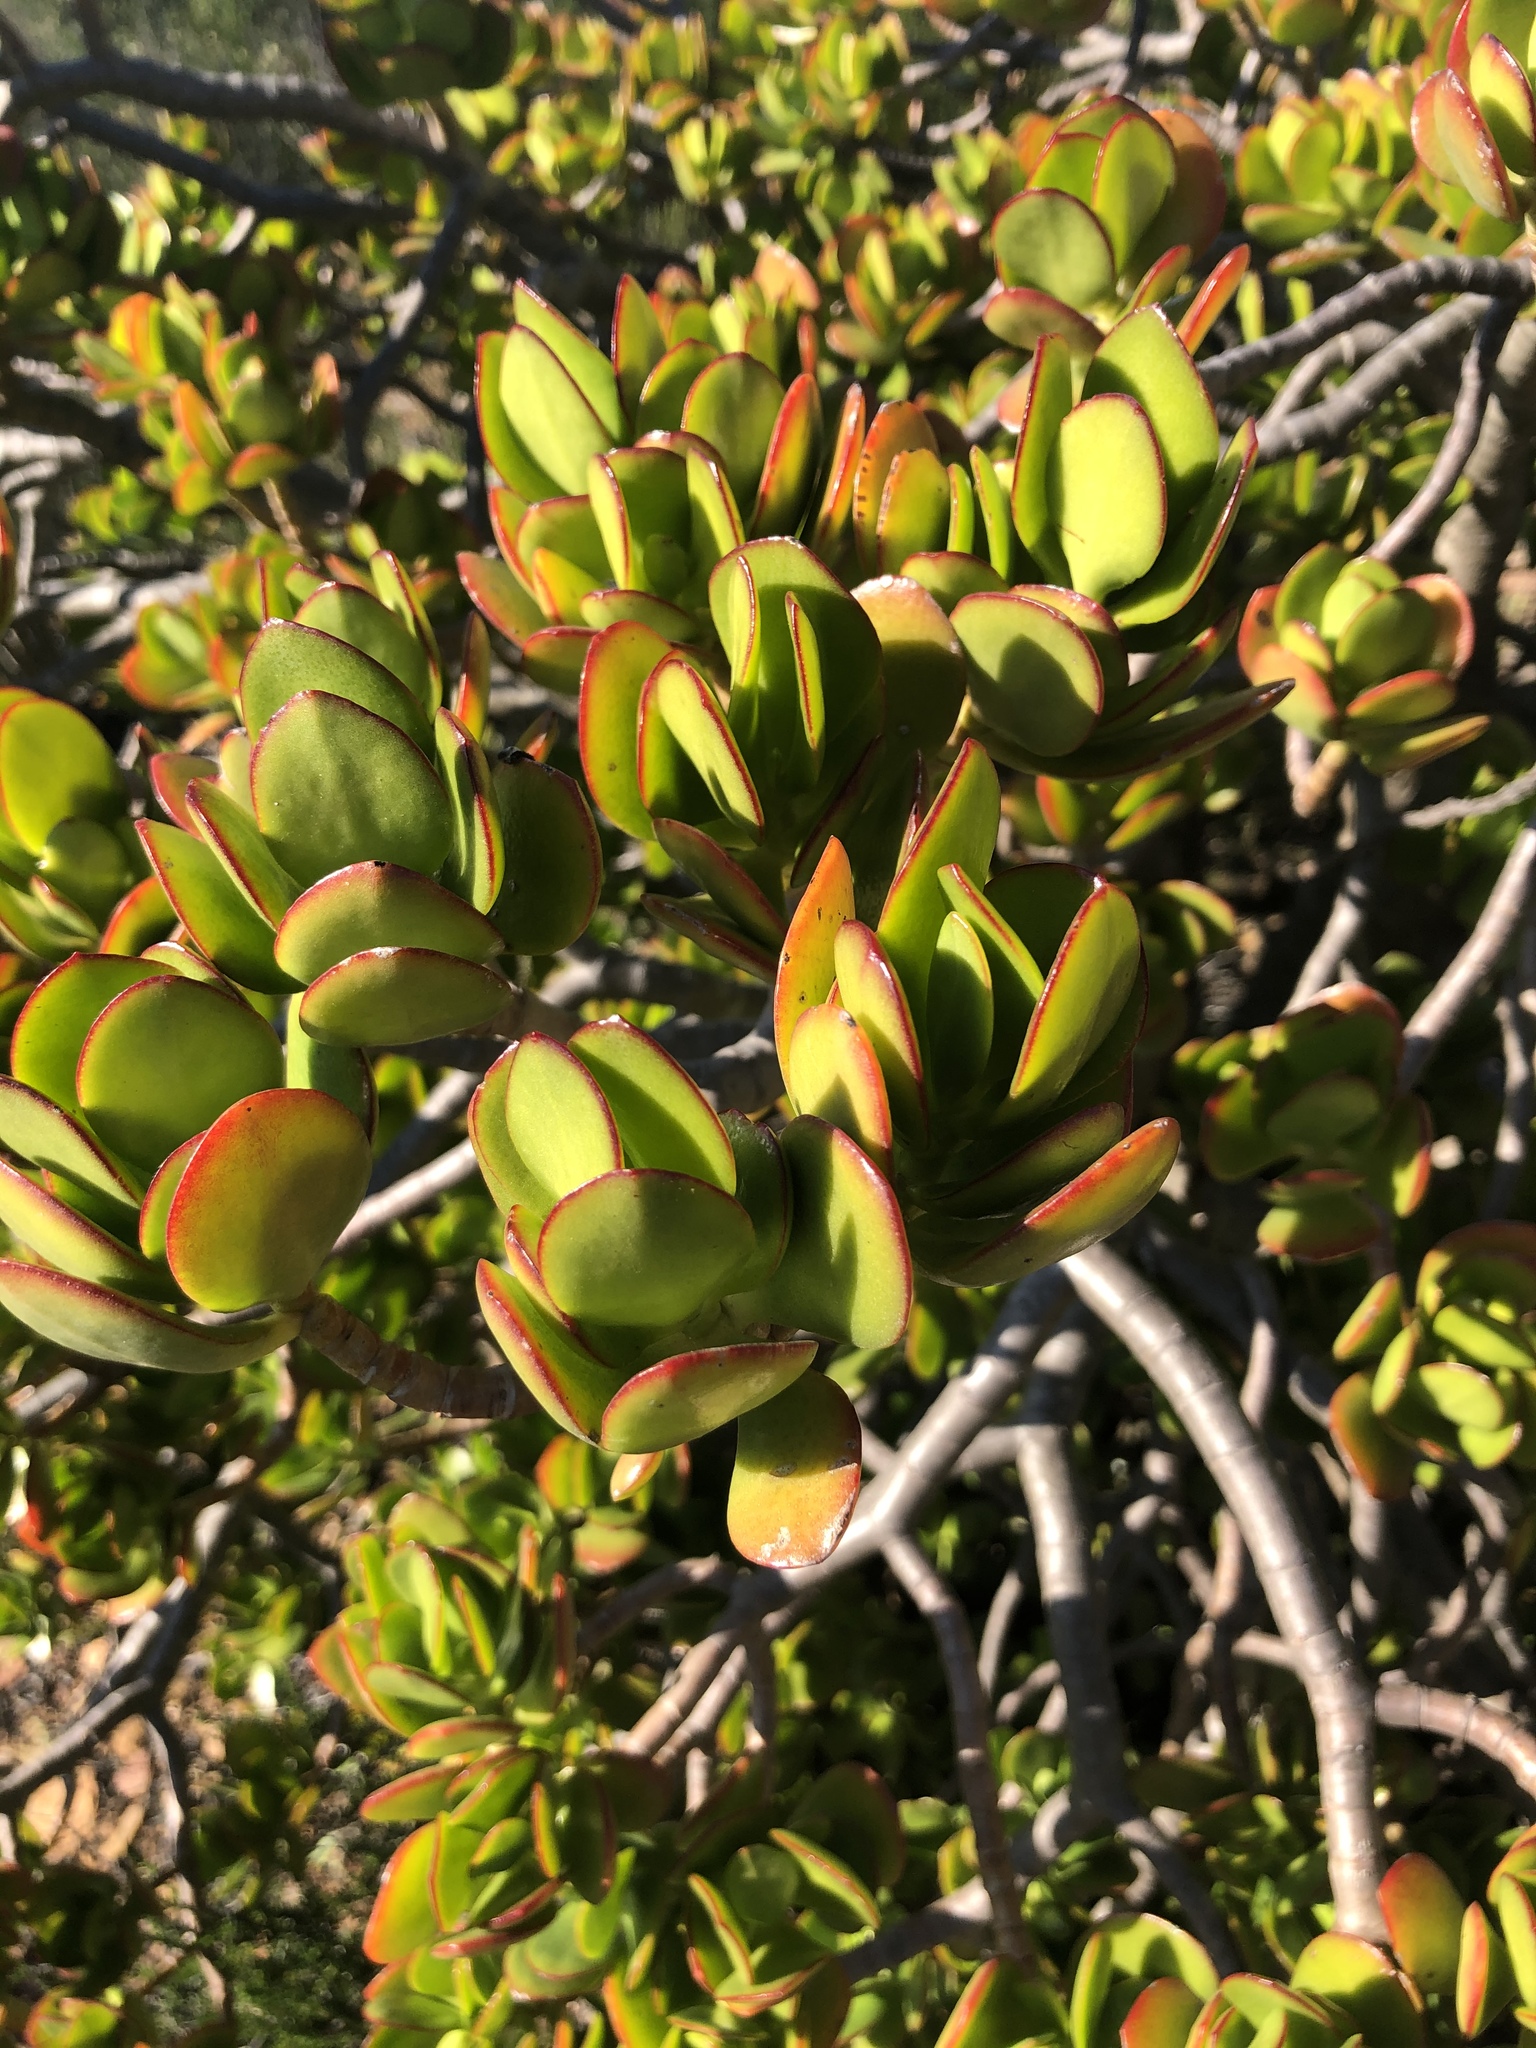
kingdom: Plantae
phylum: Tracheophyta
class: Magnoliopsida
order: Saxifragales
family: Crassulaceae
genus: Crassula
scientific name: Crassula ovata
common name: Jade plant
